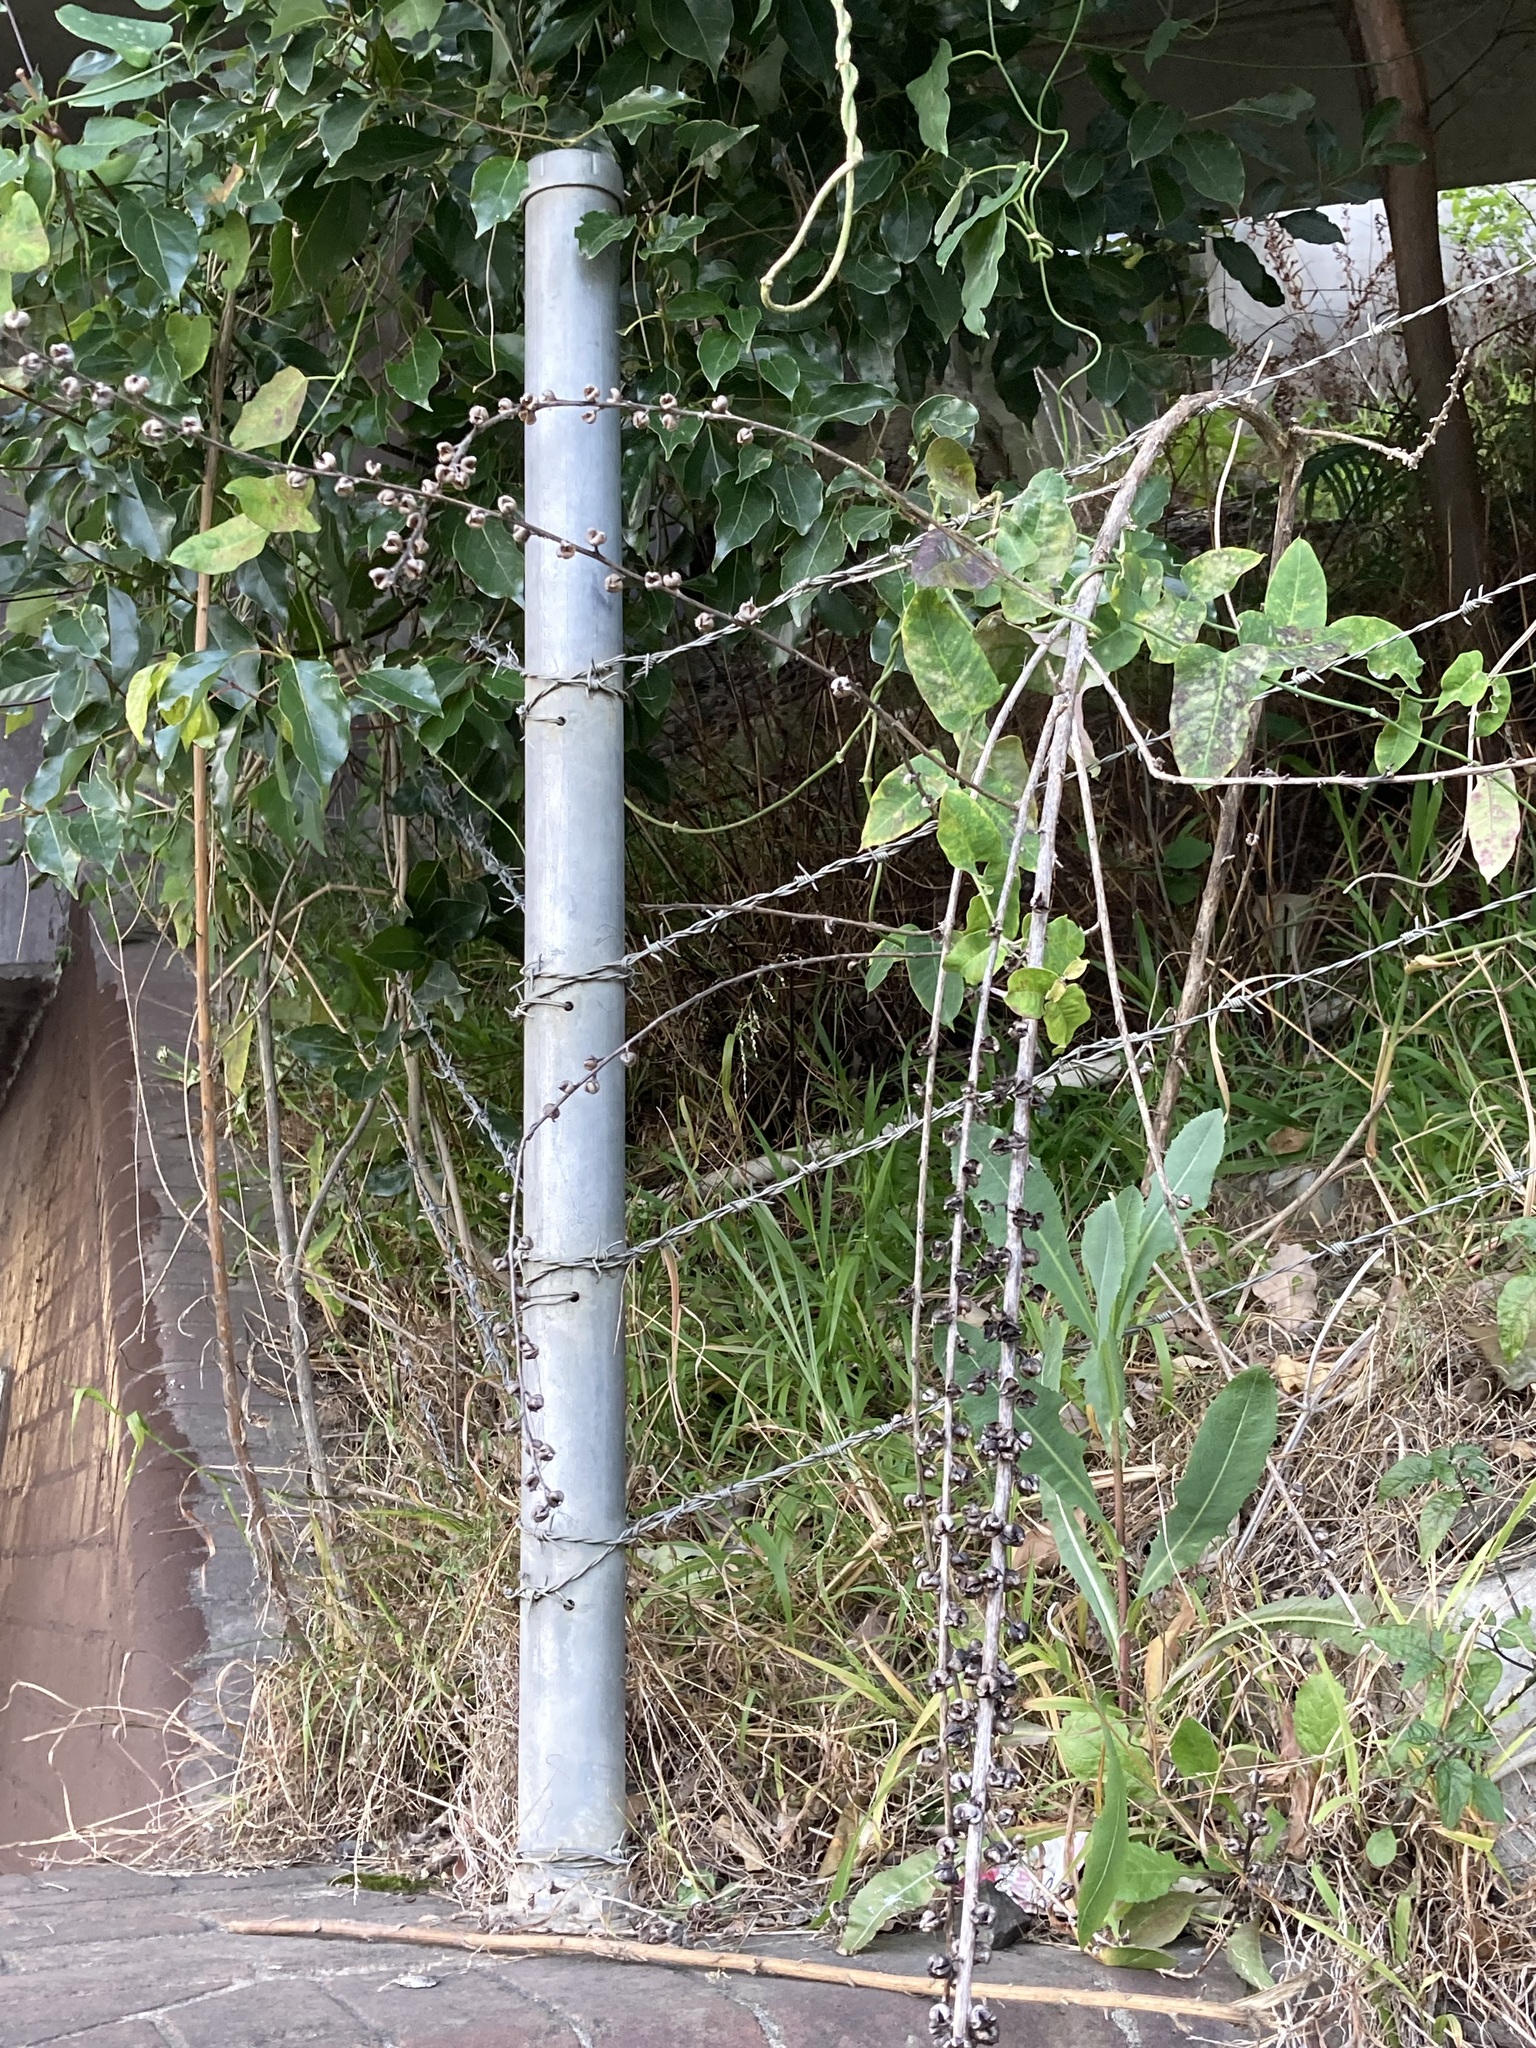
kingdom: Plantae
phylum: Tracheophyta
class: Magnoliopsida
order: Lamiales
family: Scrophulariaceae
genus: Verbascum
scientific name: Verbascum virgatum
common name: Twiggy mullein
